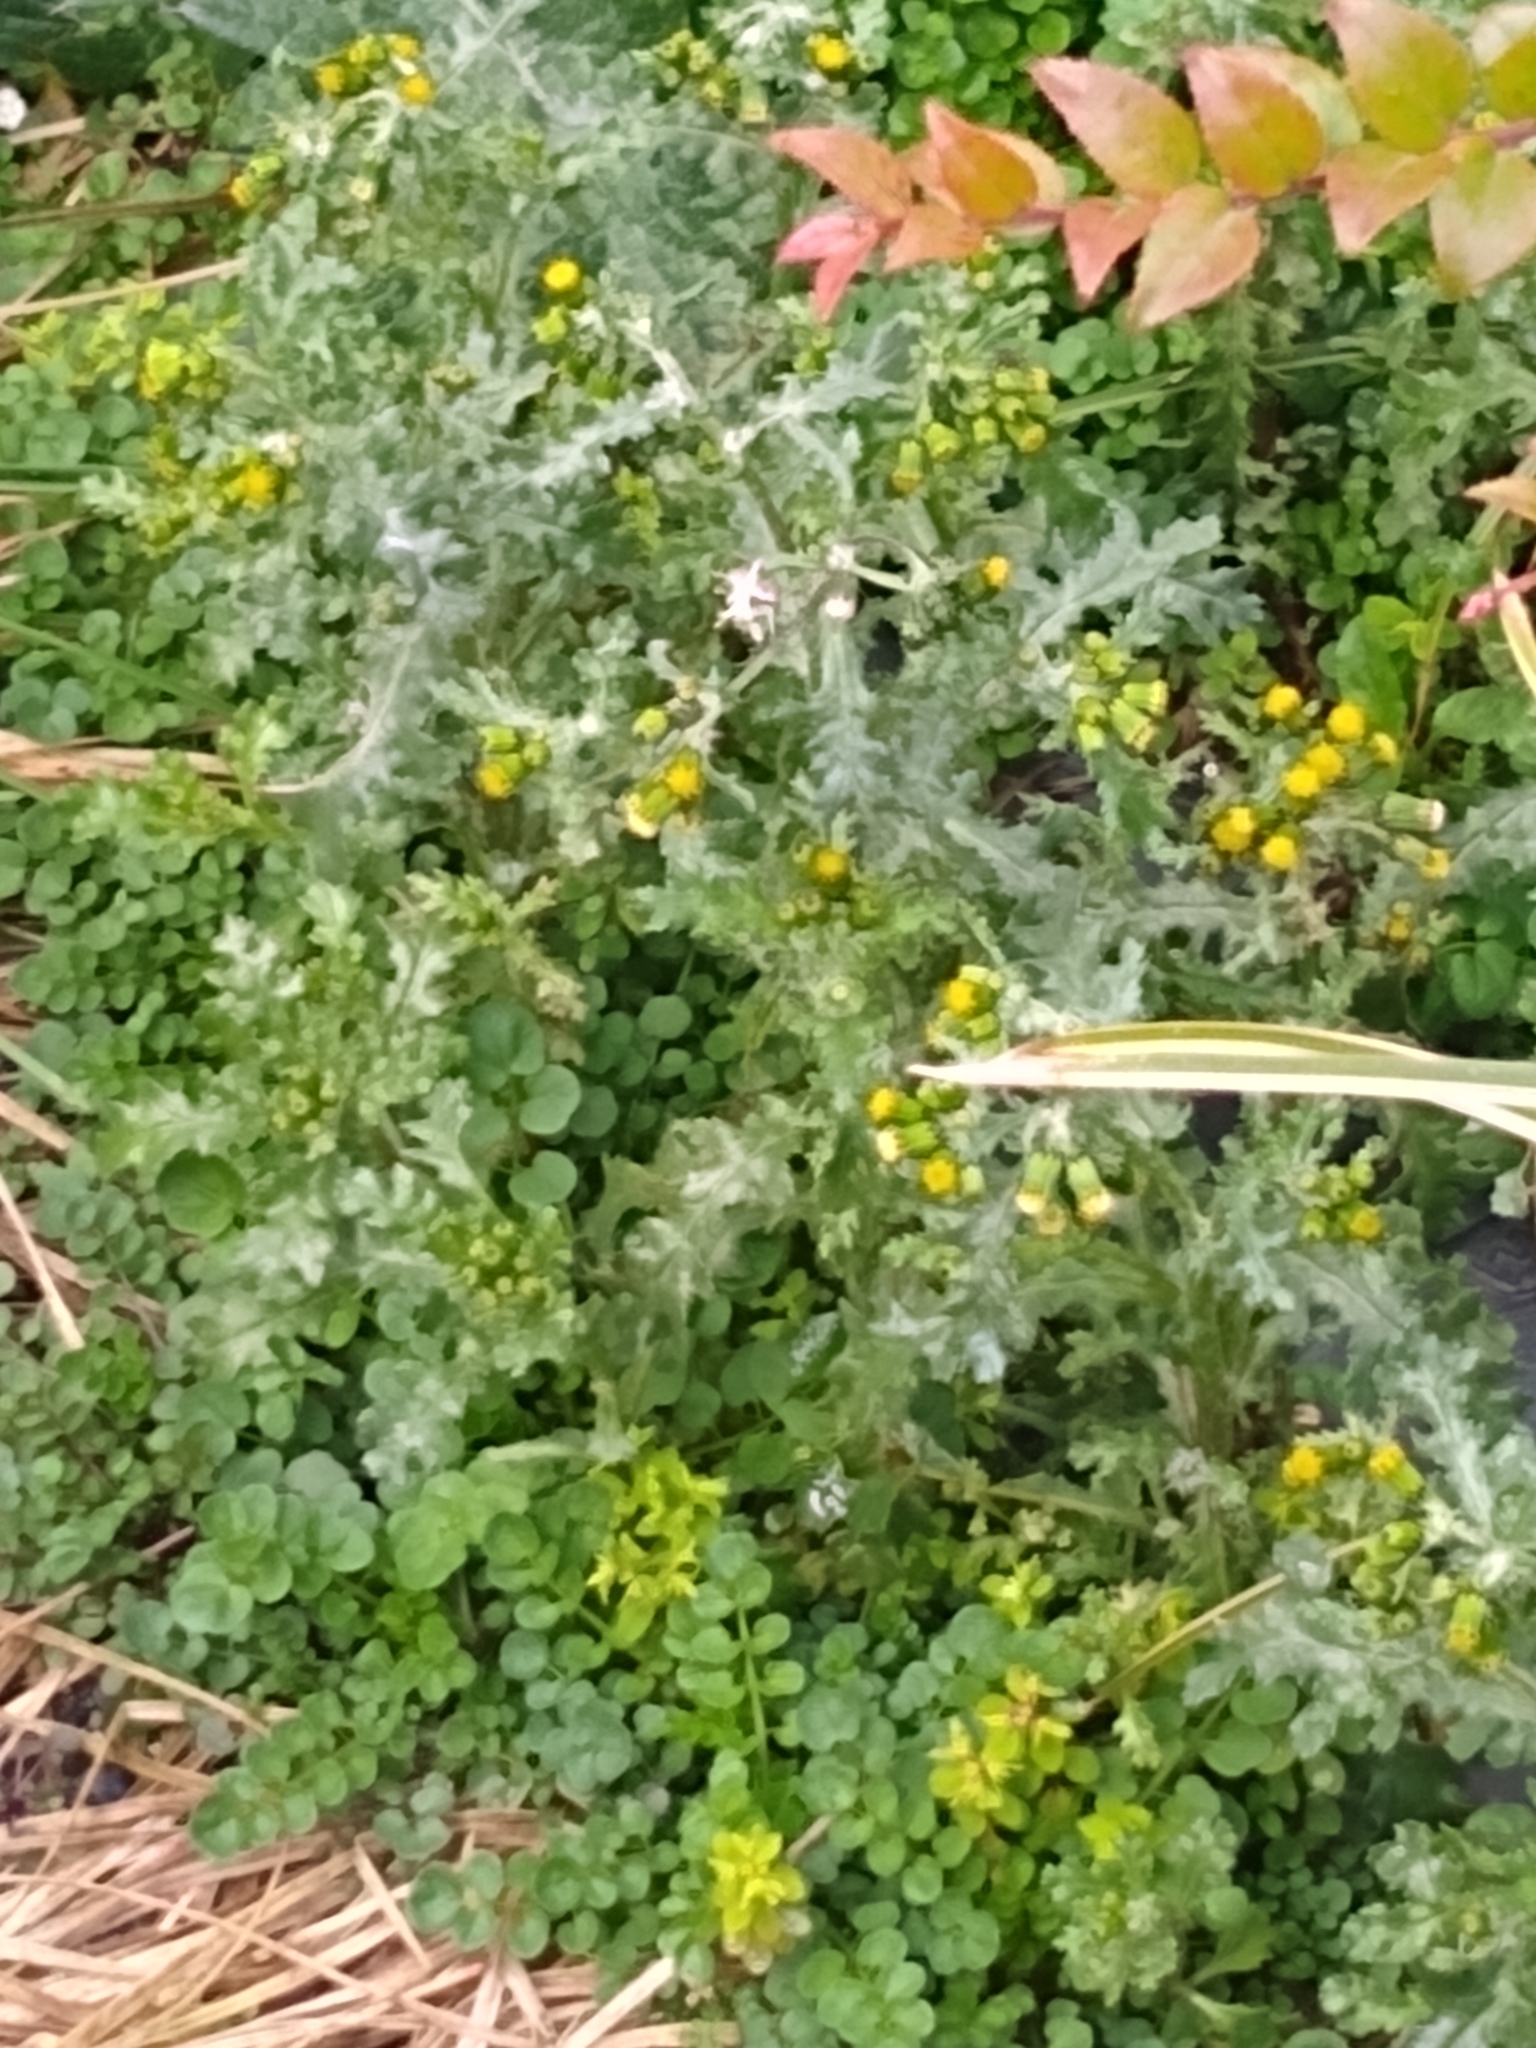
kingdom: Plantae
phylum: Tracheophyta
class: Magnoliopsida
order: Asterales
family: Asteraceae
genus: Senecio
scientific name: Senecio vulgaris
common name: Old-man-in-the-spring
